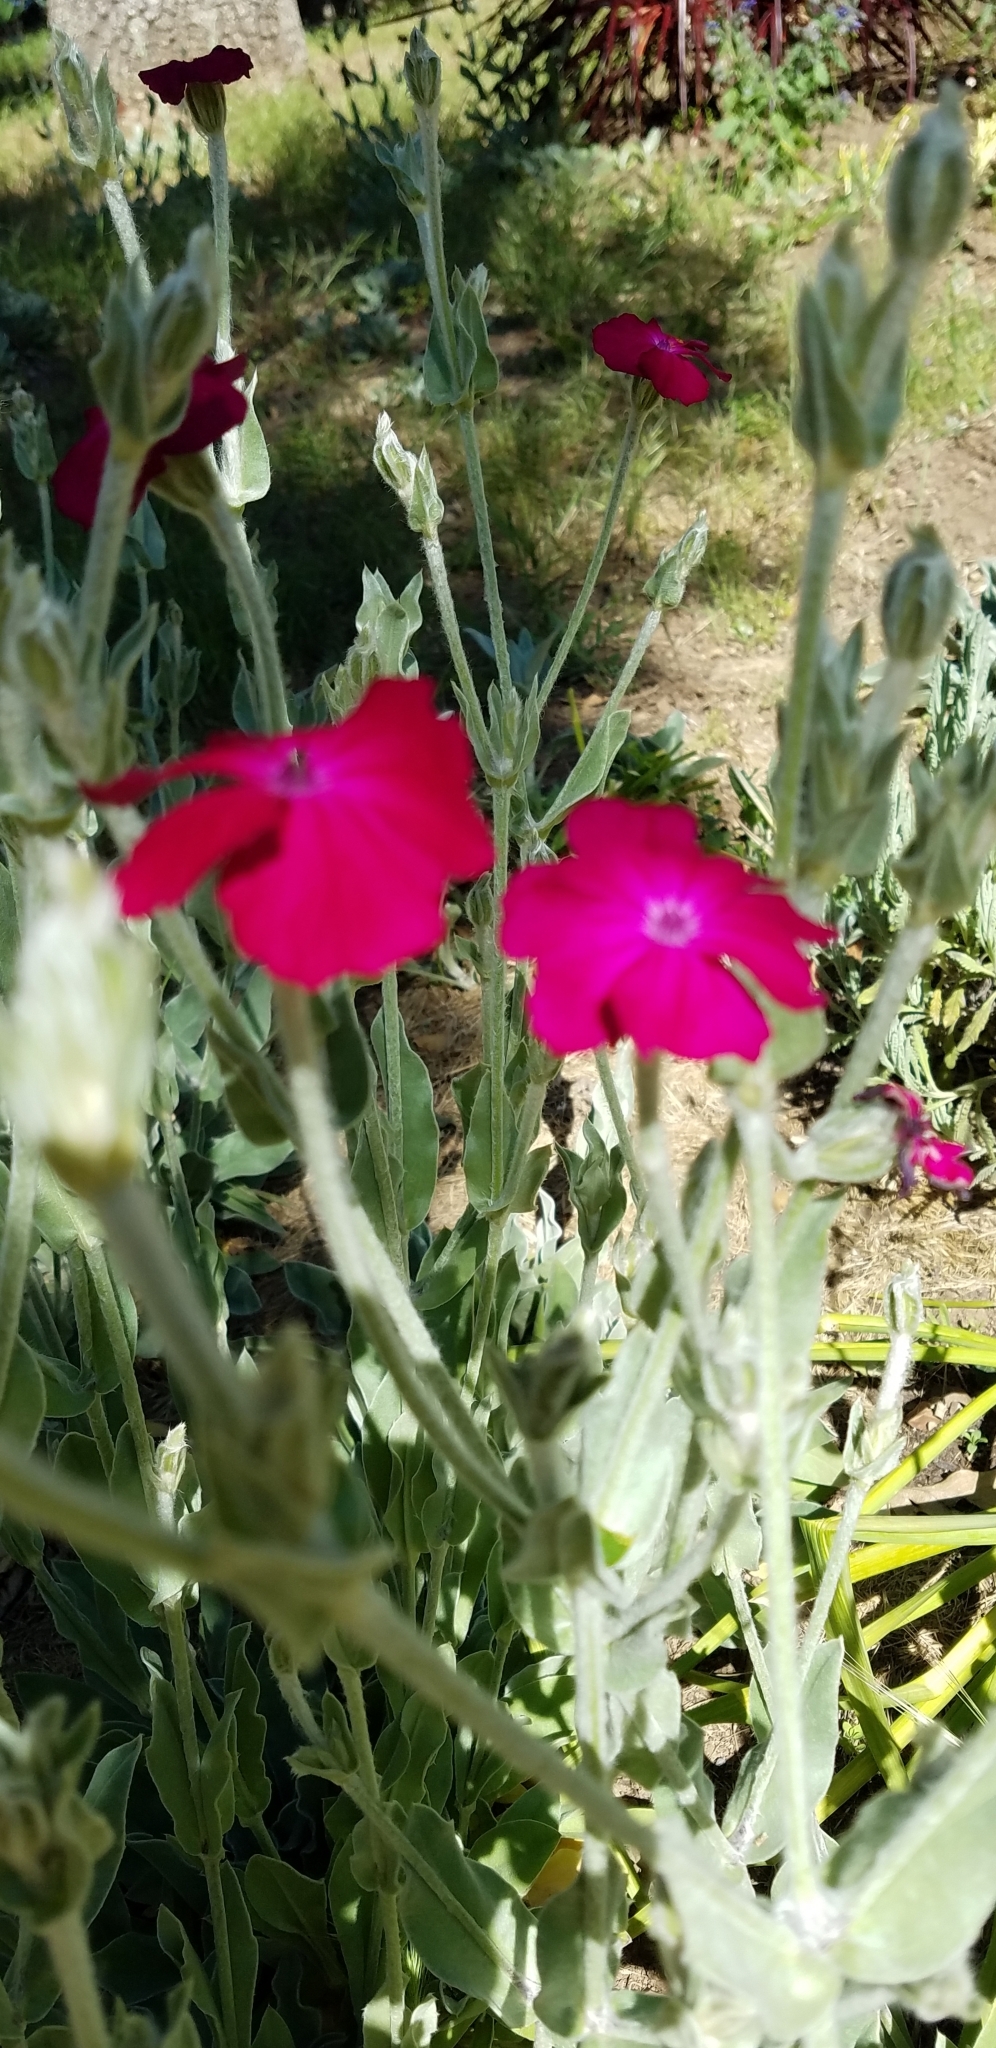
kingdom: Plantae
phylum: Tracheophyta
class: Magnoliopsida
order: Caryophyllales
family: Caryophyllaceae
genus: Silene
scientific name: Silene coronaria
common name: Rose campion
